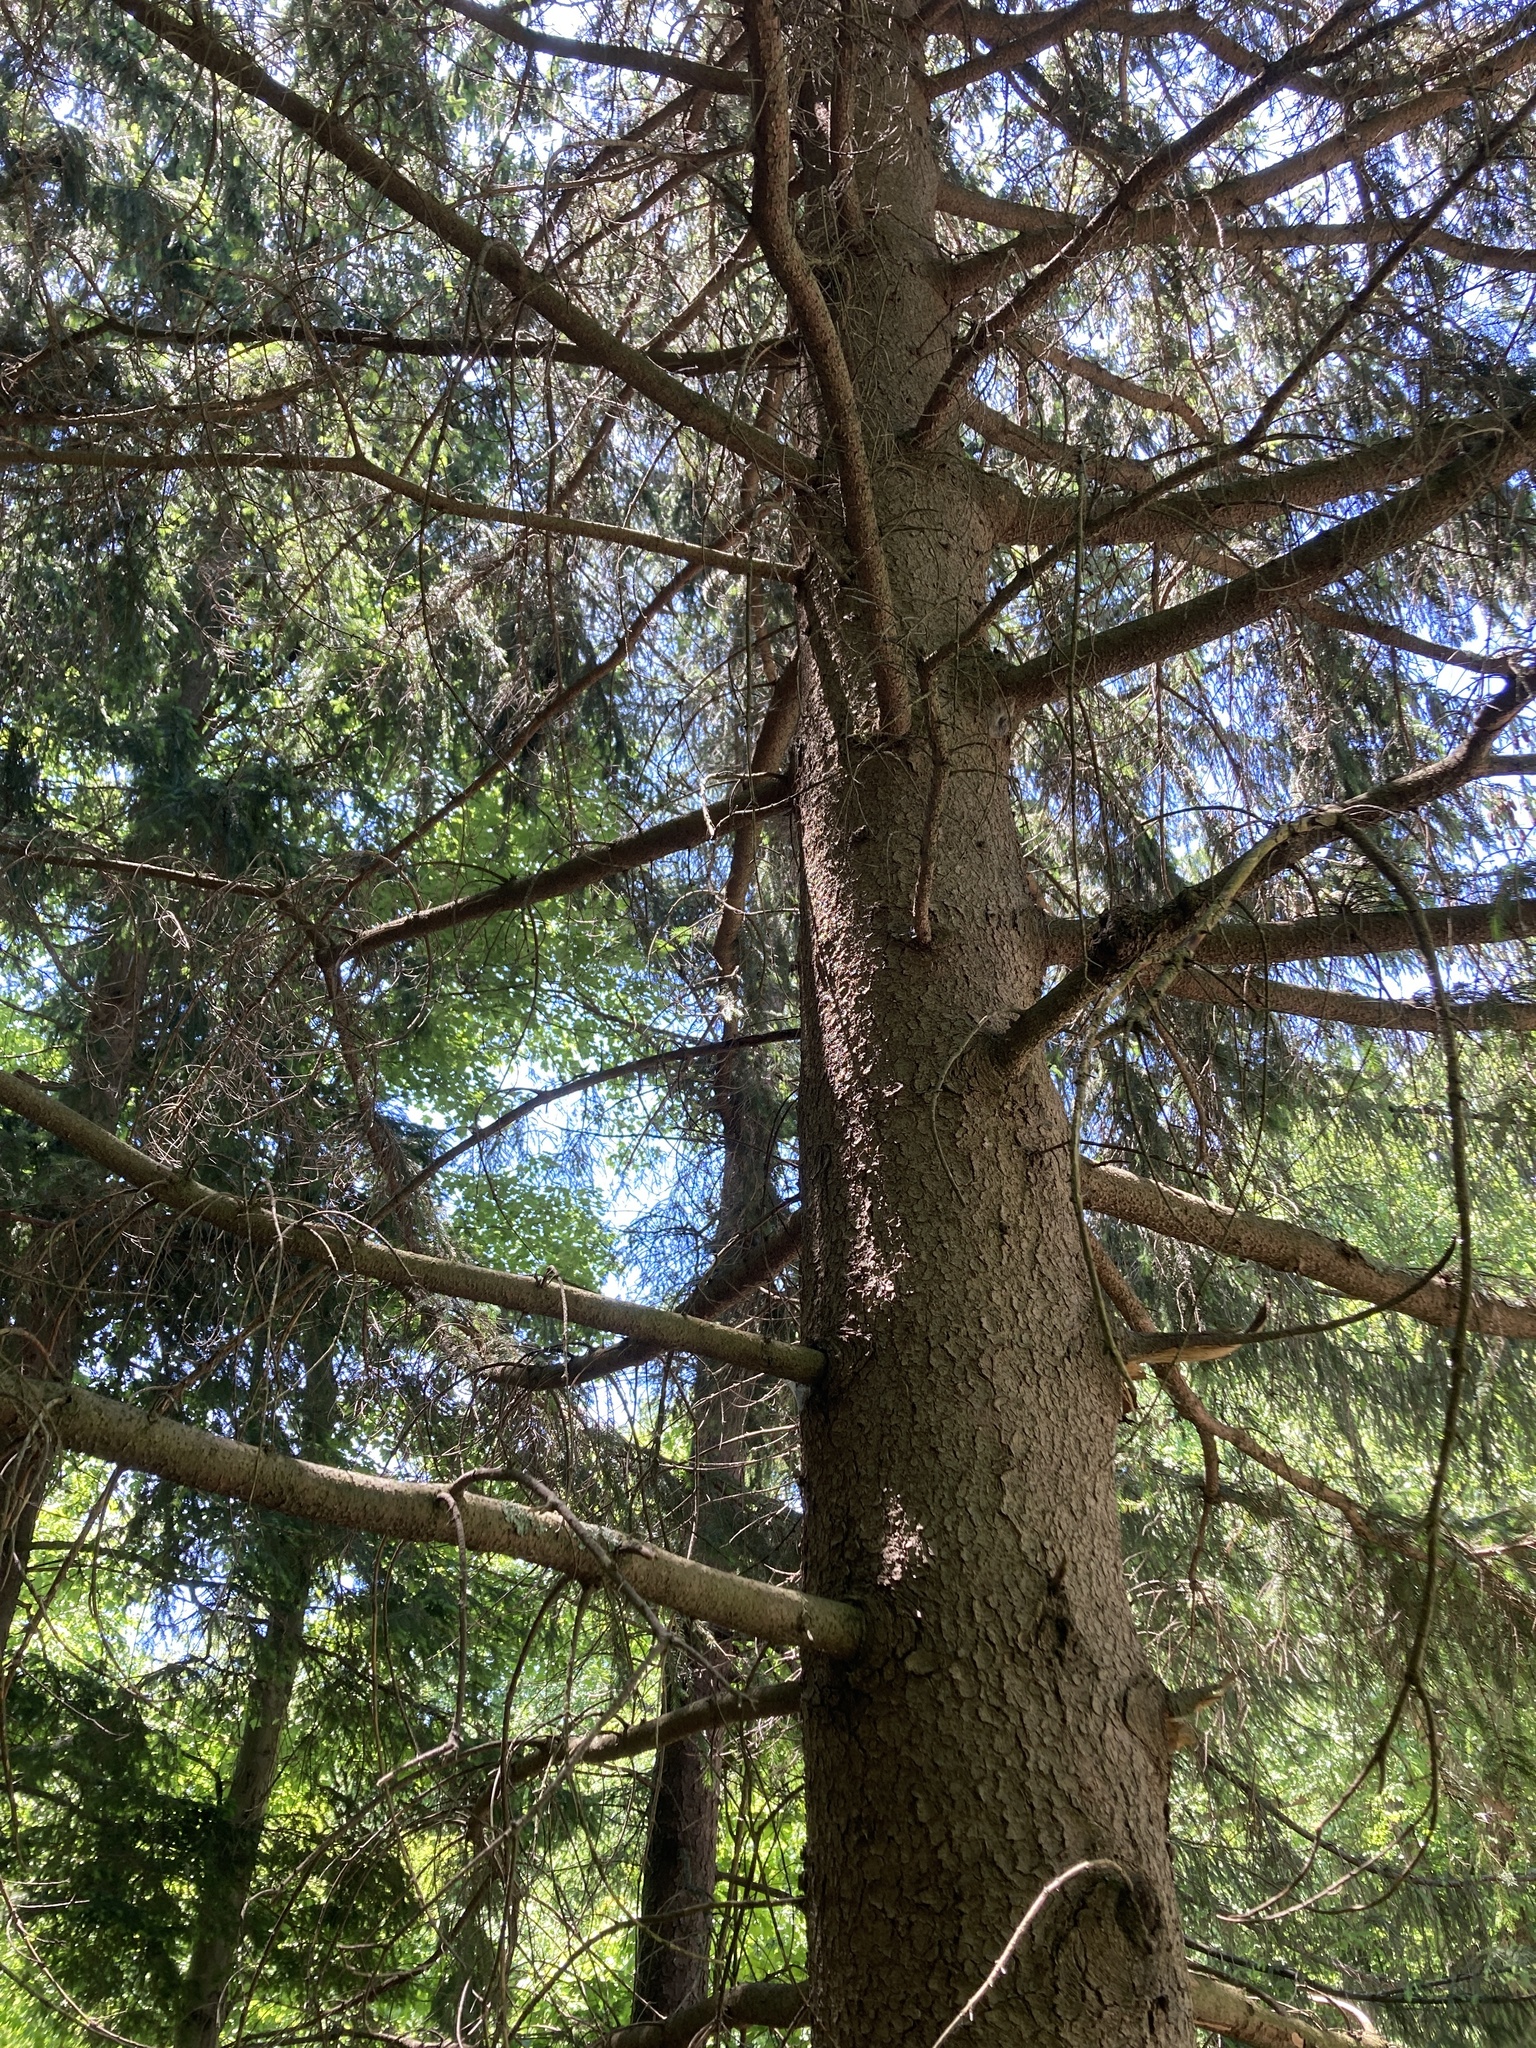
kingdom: Plantae
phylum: Tracheophyta
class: Pinopsida
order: Pinales
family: Pinaceae
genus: Picea
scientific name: Picea abies
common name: Norway spruce
